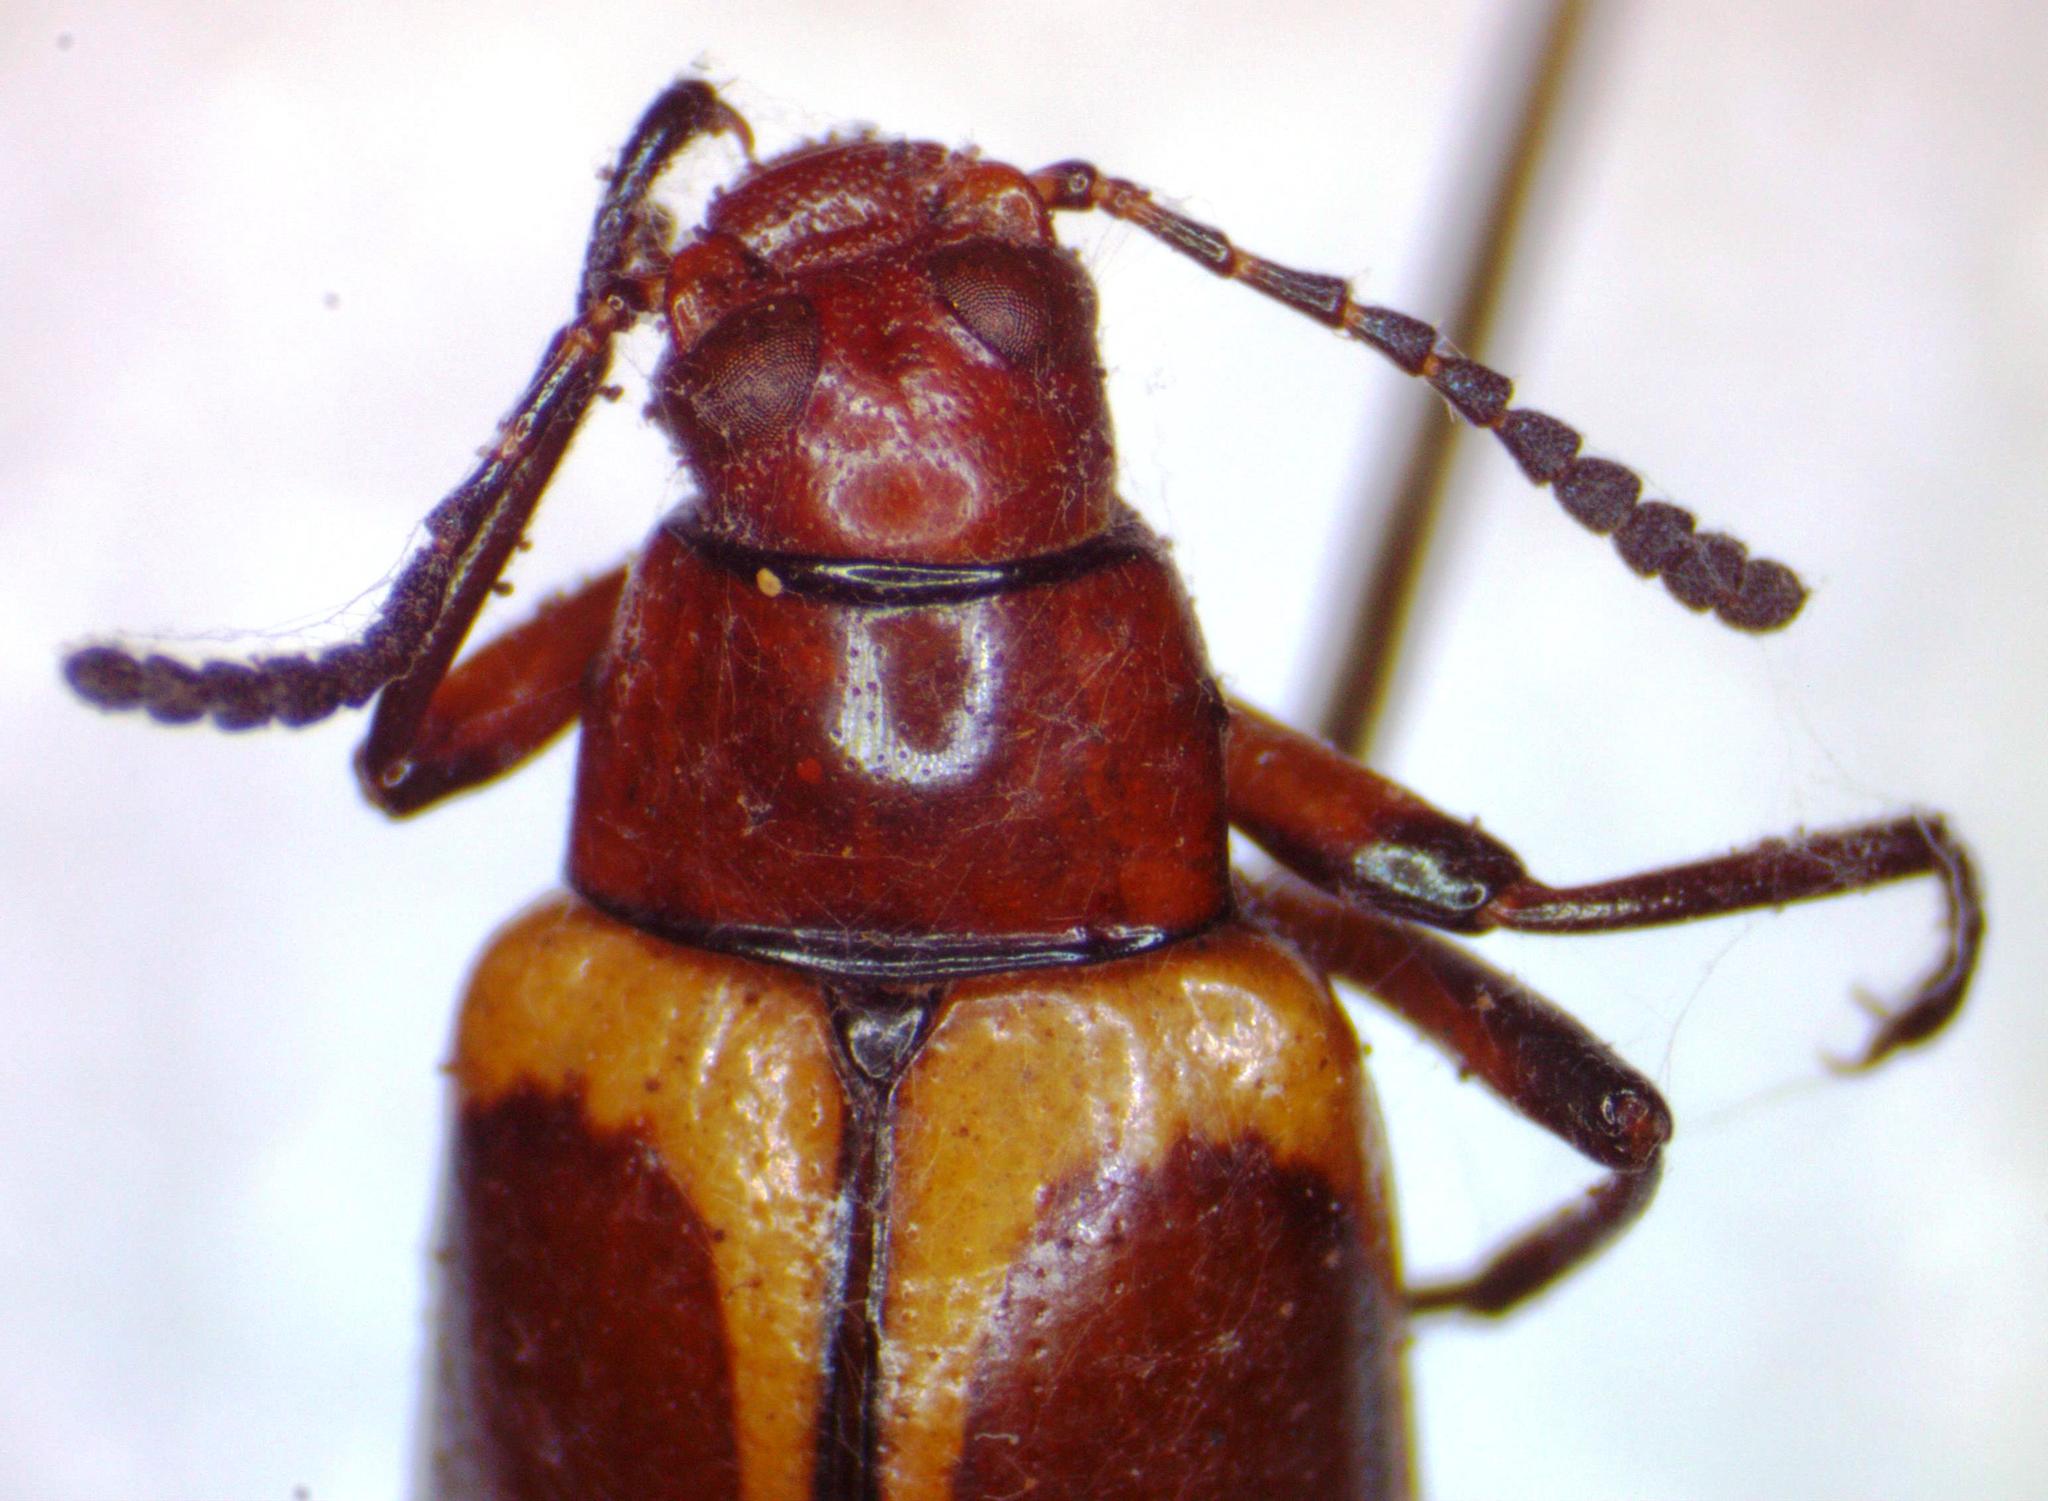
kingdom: Animalia
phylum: Arthropoda
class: Insecta
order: Coleoptera
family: Tenebrionidae
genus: Poecilesthus
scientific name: Poecilesthus
